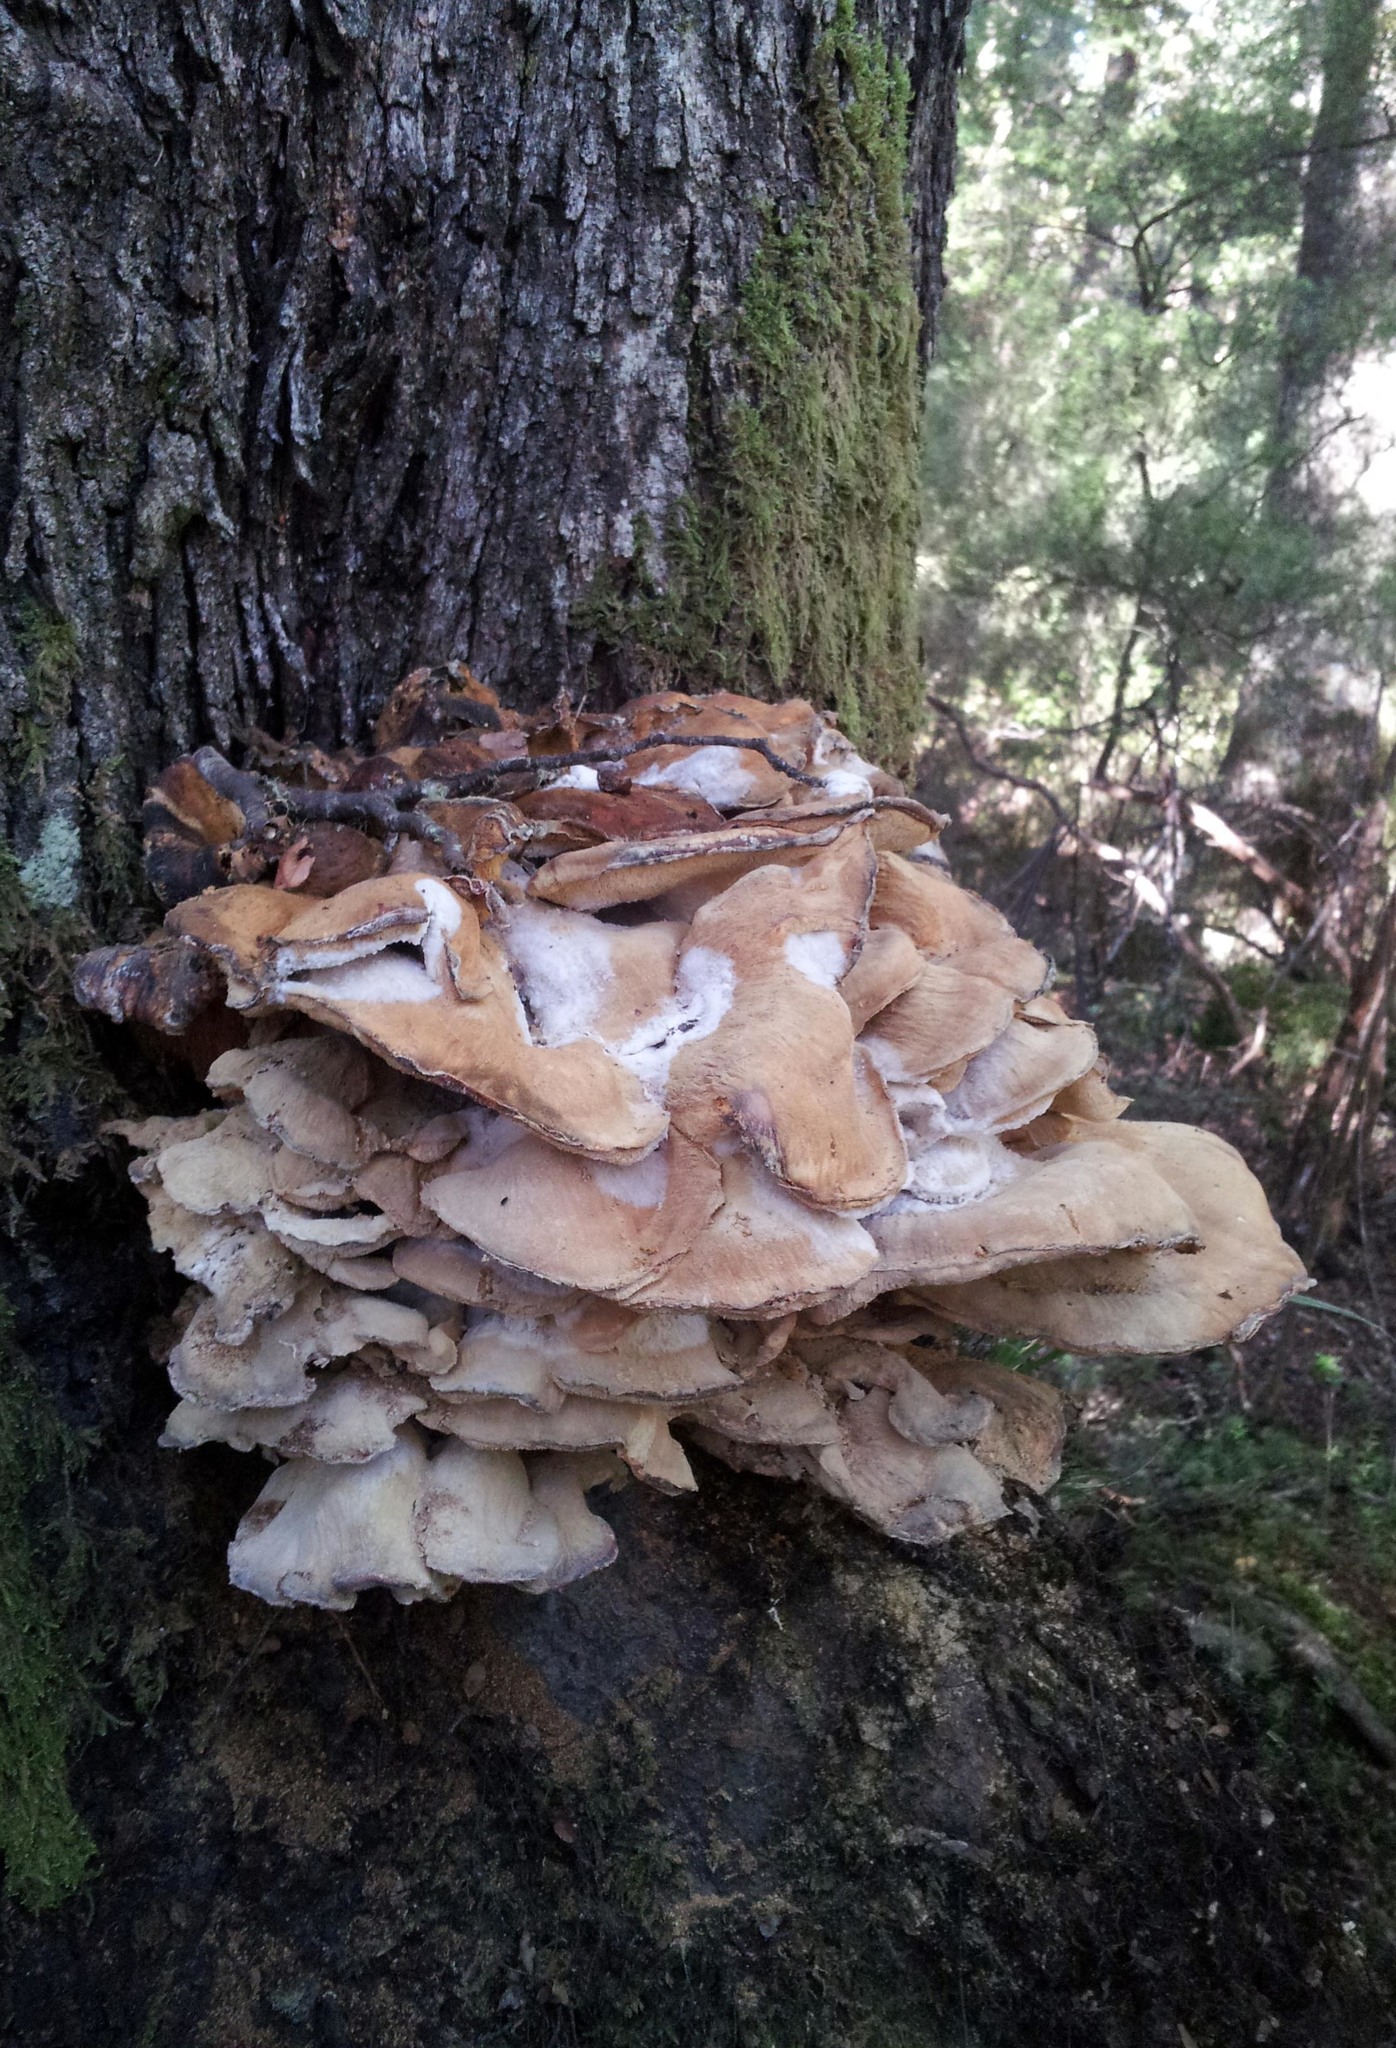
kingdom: Fungi
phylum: Basidiomycota
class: Agaricomycetes
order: Russulales
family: Bondarzewiaceae
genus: Bondarzewia
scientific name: Bondarzewia kirkii
